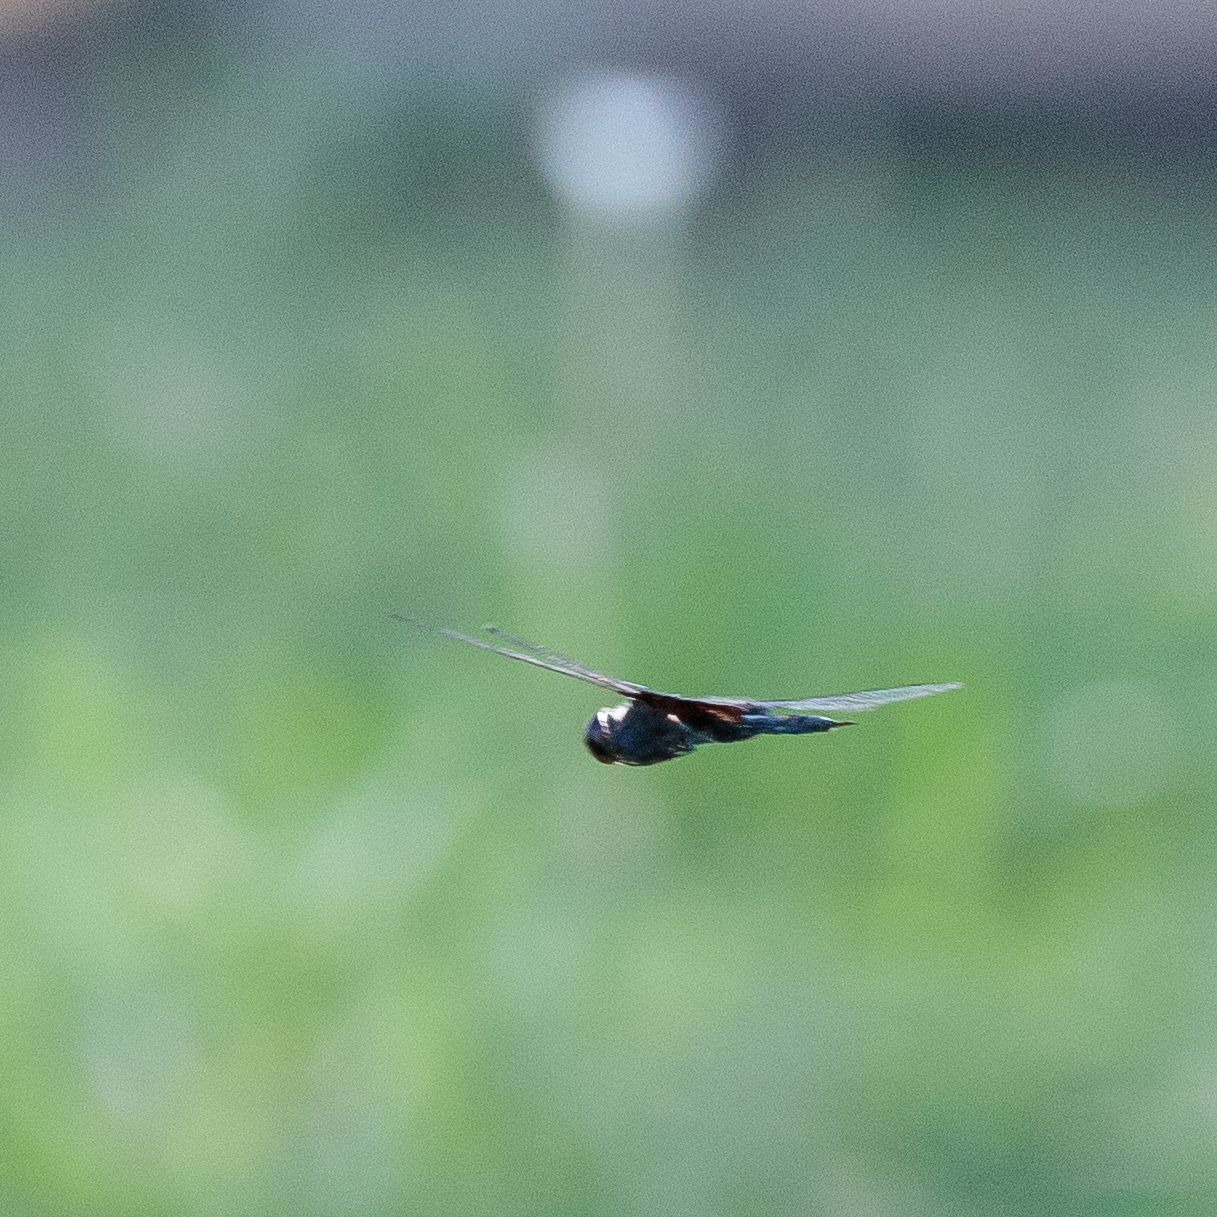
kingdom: Animalia
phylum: Arthropoda
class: Insecta
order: Odonata
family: Libellulidae
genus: Tramea
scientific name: Tramea lacerata
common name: Black saddlebags
